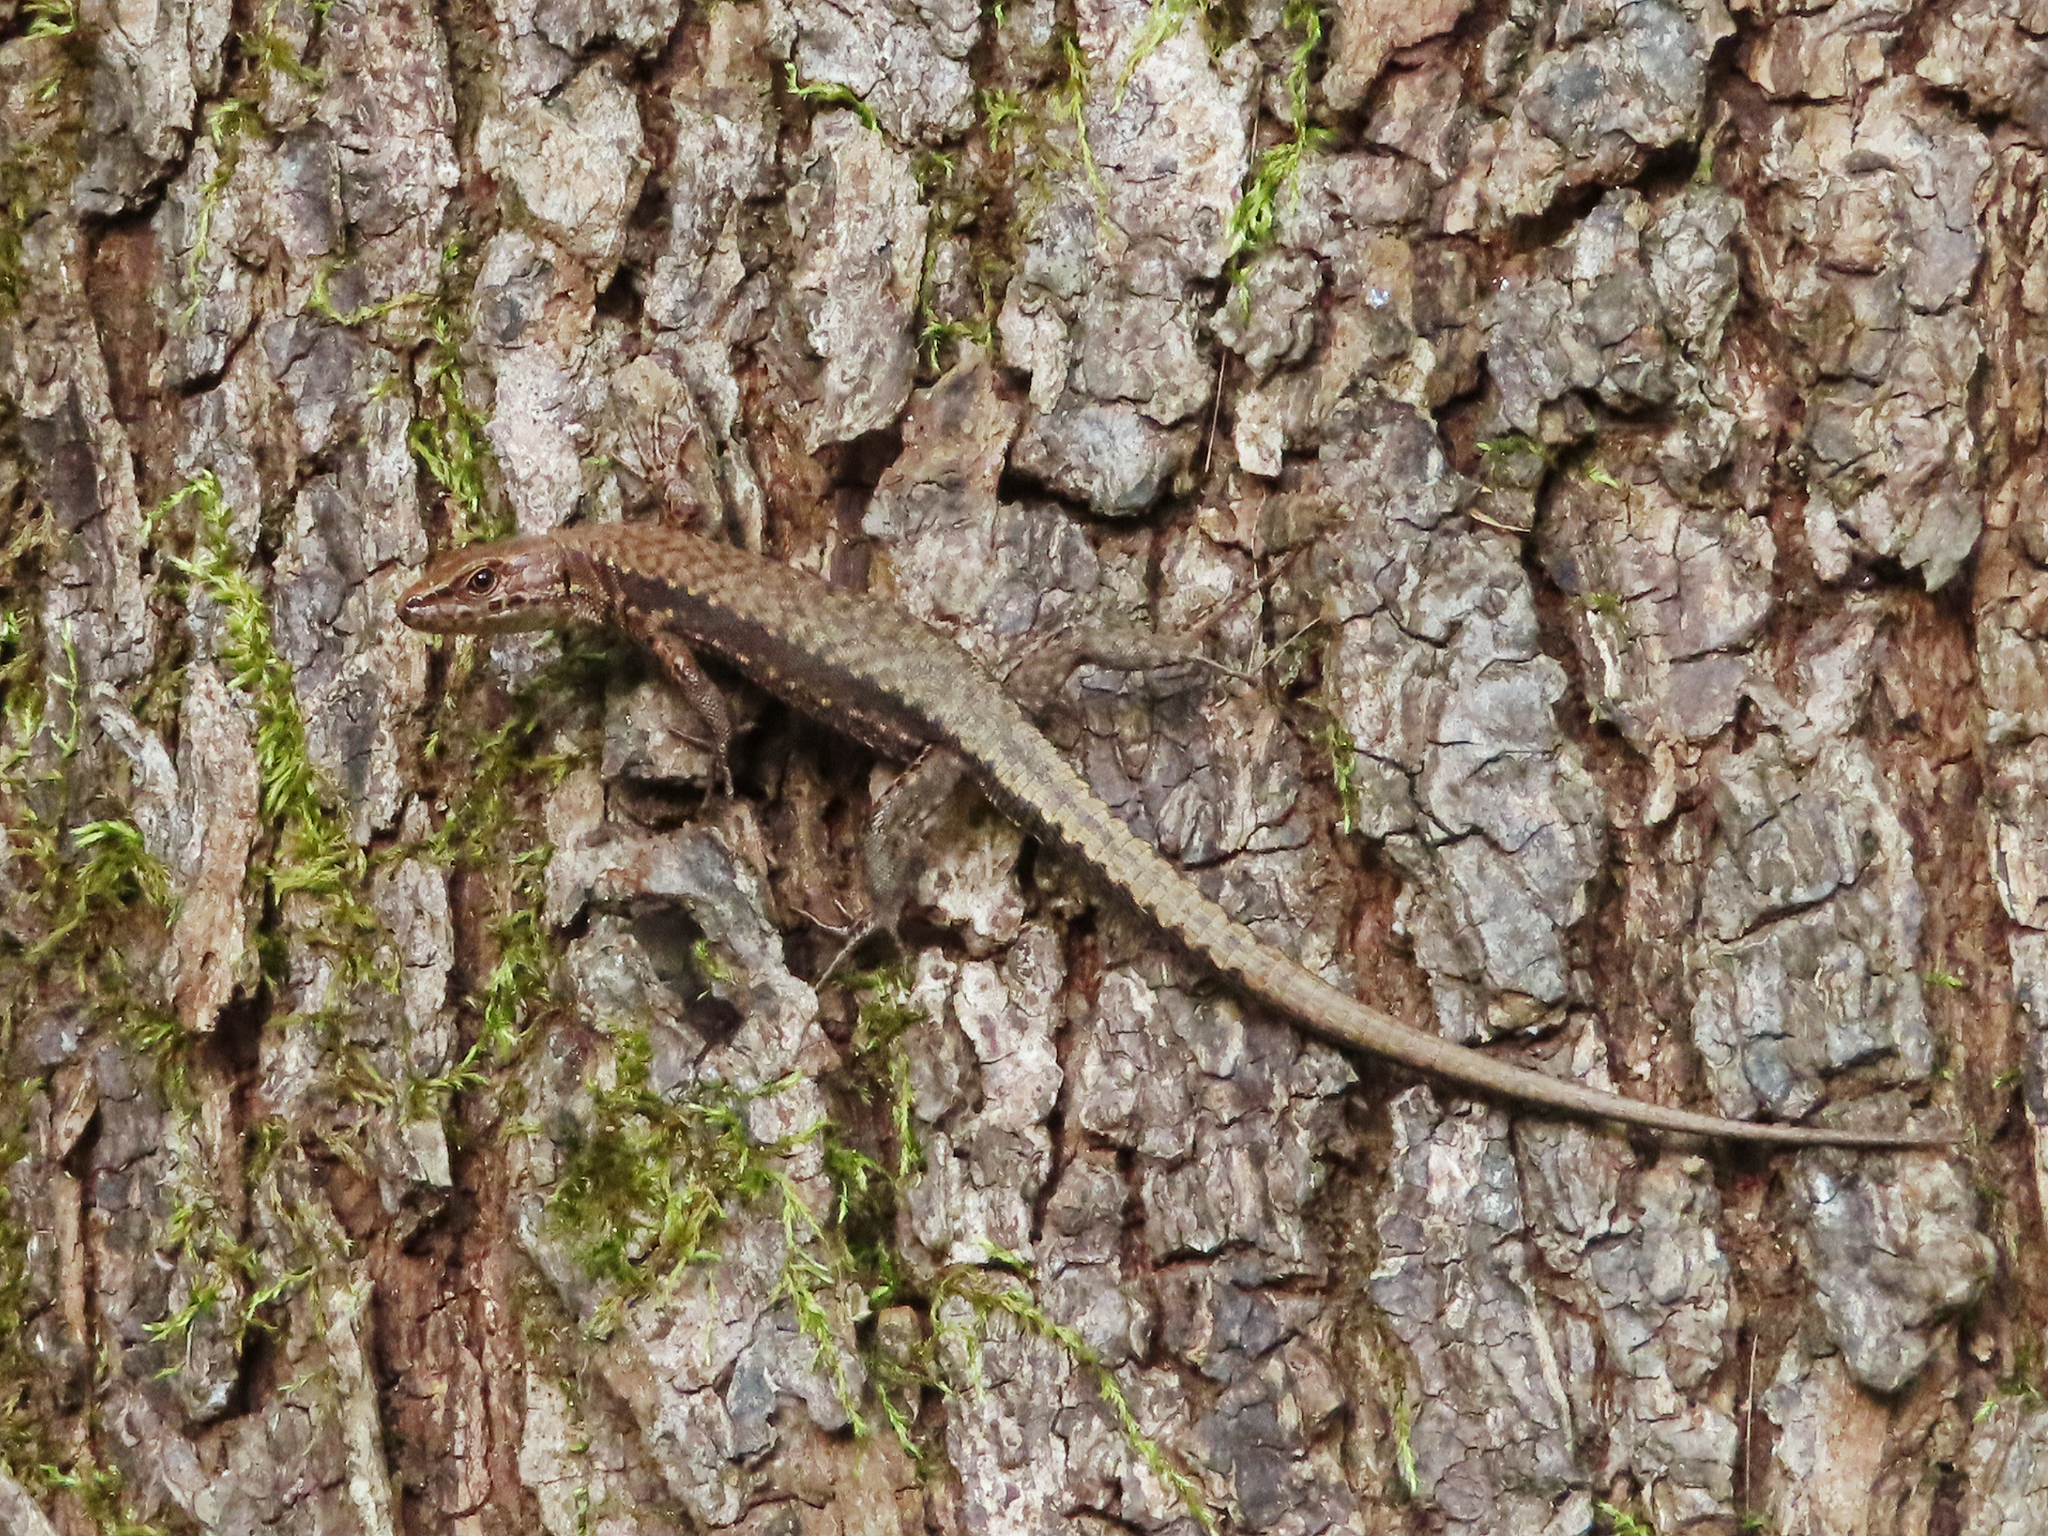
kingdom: Animalia
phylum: Chordata
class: Squamata
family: Lacertidae
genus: Darevskia
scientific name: Darevskia derjugini
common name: Derjugin's lizard
